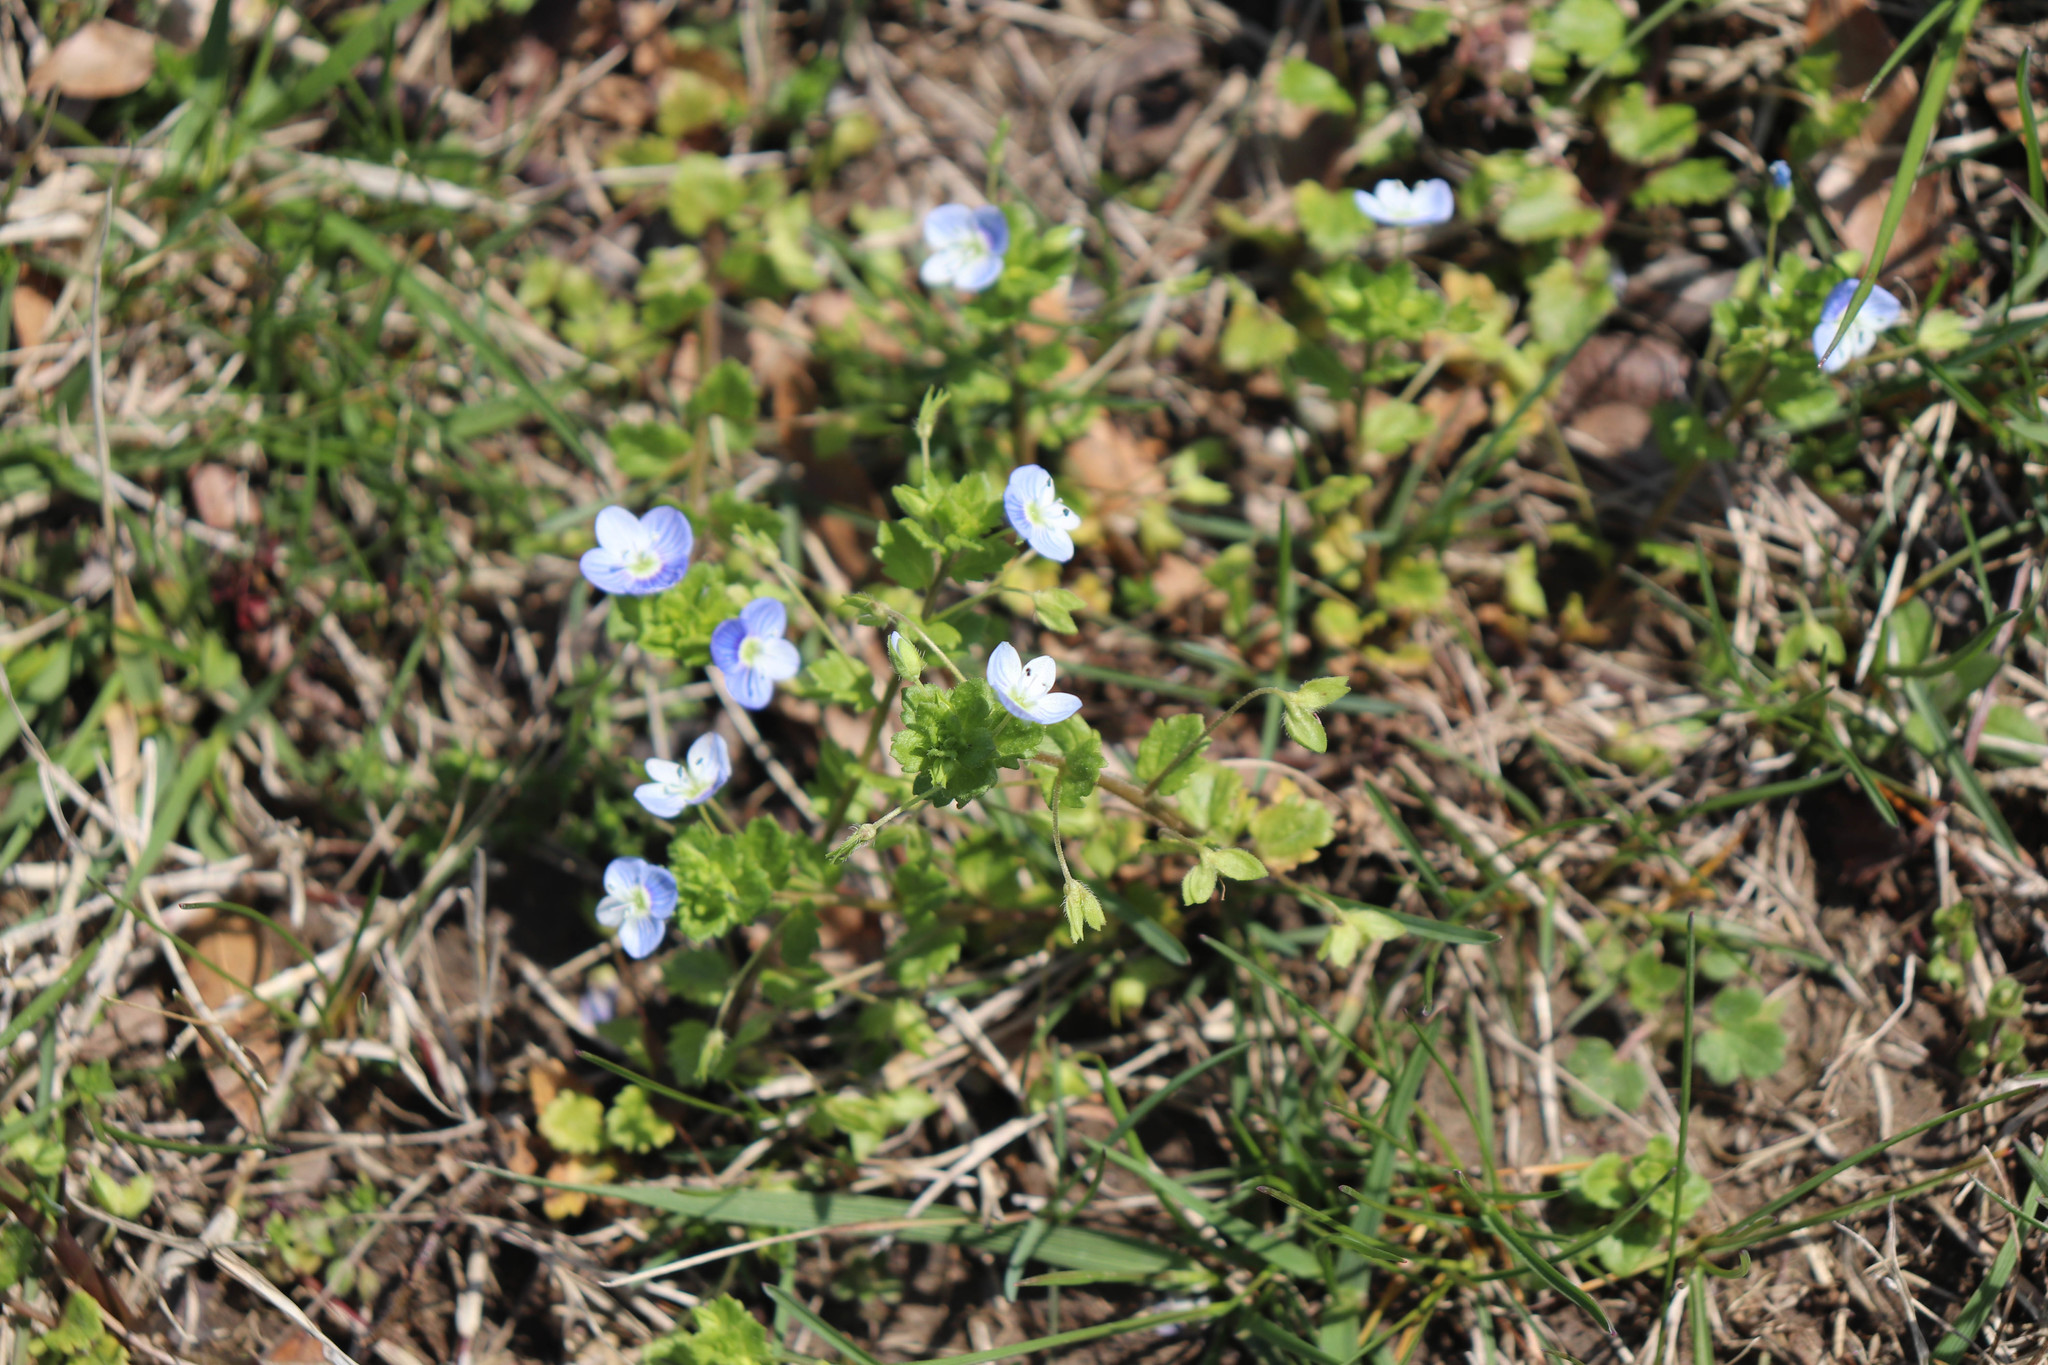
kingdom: Plantae
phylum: Tracheophyta
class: Magnoliopsida
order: Lamiales
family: Plantaginaceae
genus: Veronica
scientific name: Veronica persica
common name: Common field-speedwell
